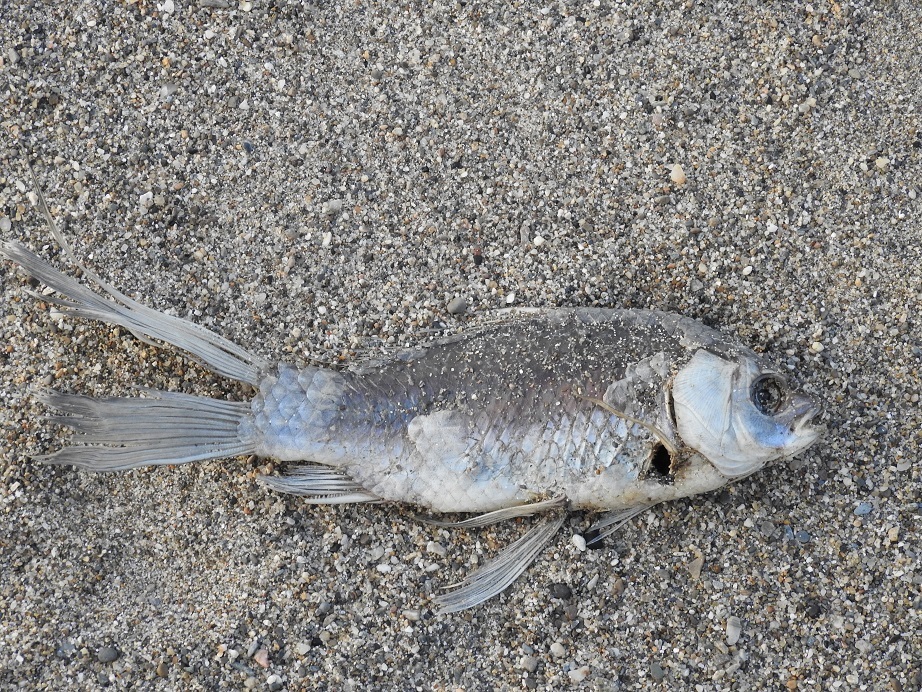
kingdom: Animalia
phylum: Chordata
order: Cypriniformes
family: Cyprinidae
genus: Carassius
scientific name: Carassius auratus
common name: Goldfish
